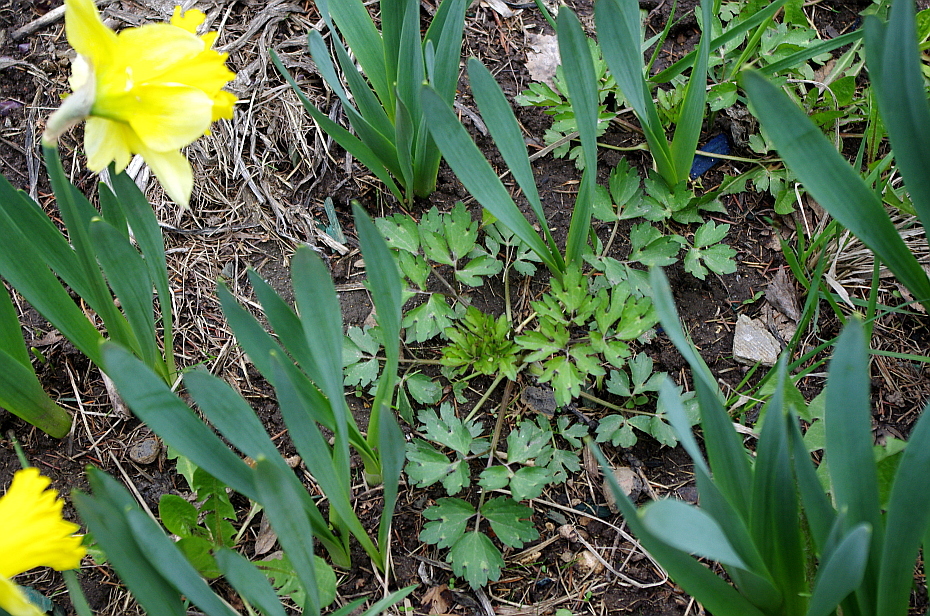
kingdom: Plantae
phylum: Tracheophyta
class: Magnoliopsida
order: Ranunculales
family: Ranunculaceae
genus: Ranunculus
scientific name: Ranunculus repens
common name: Creeping buttercup
